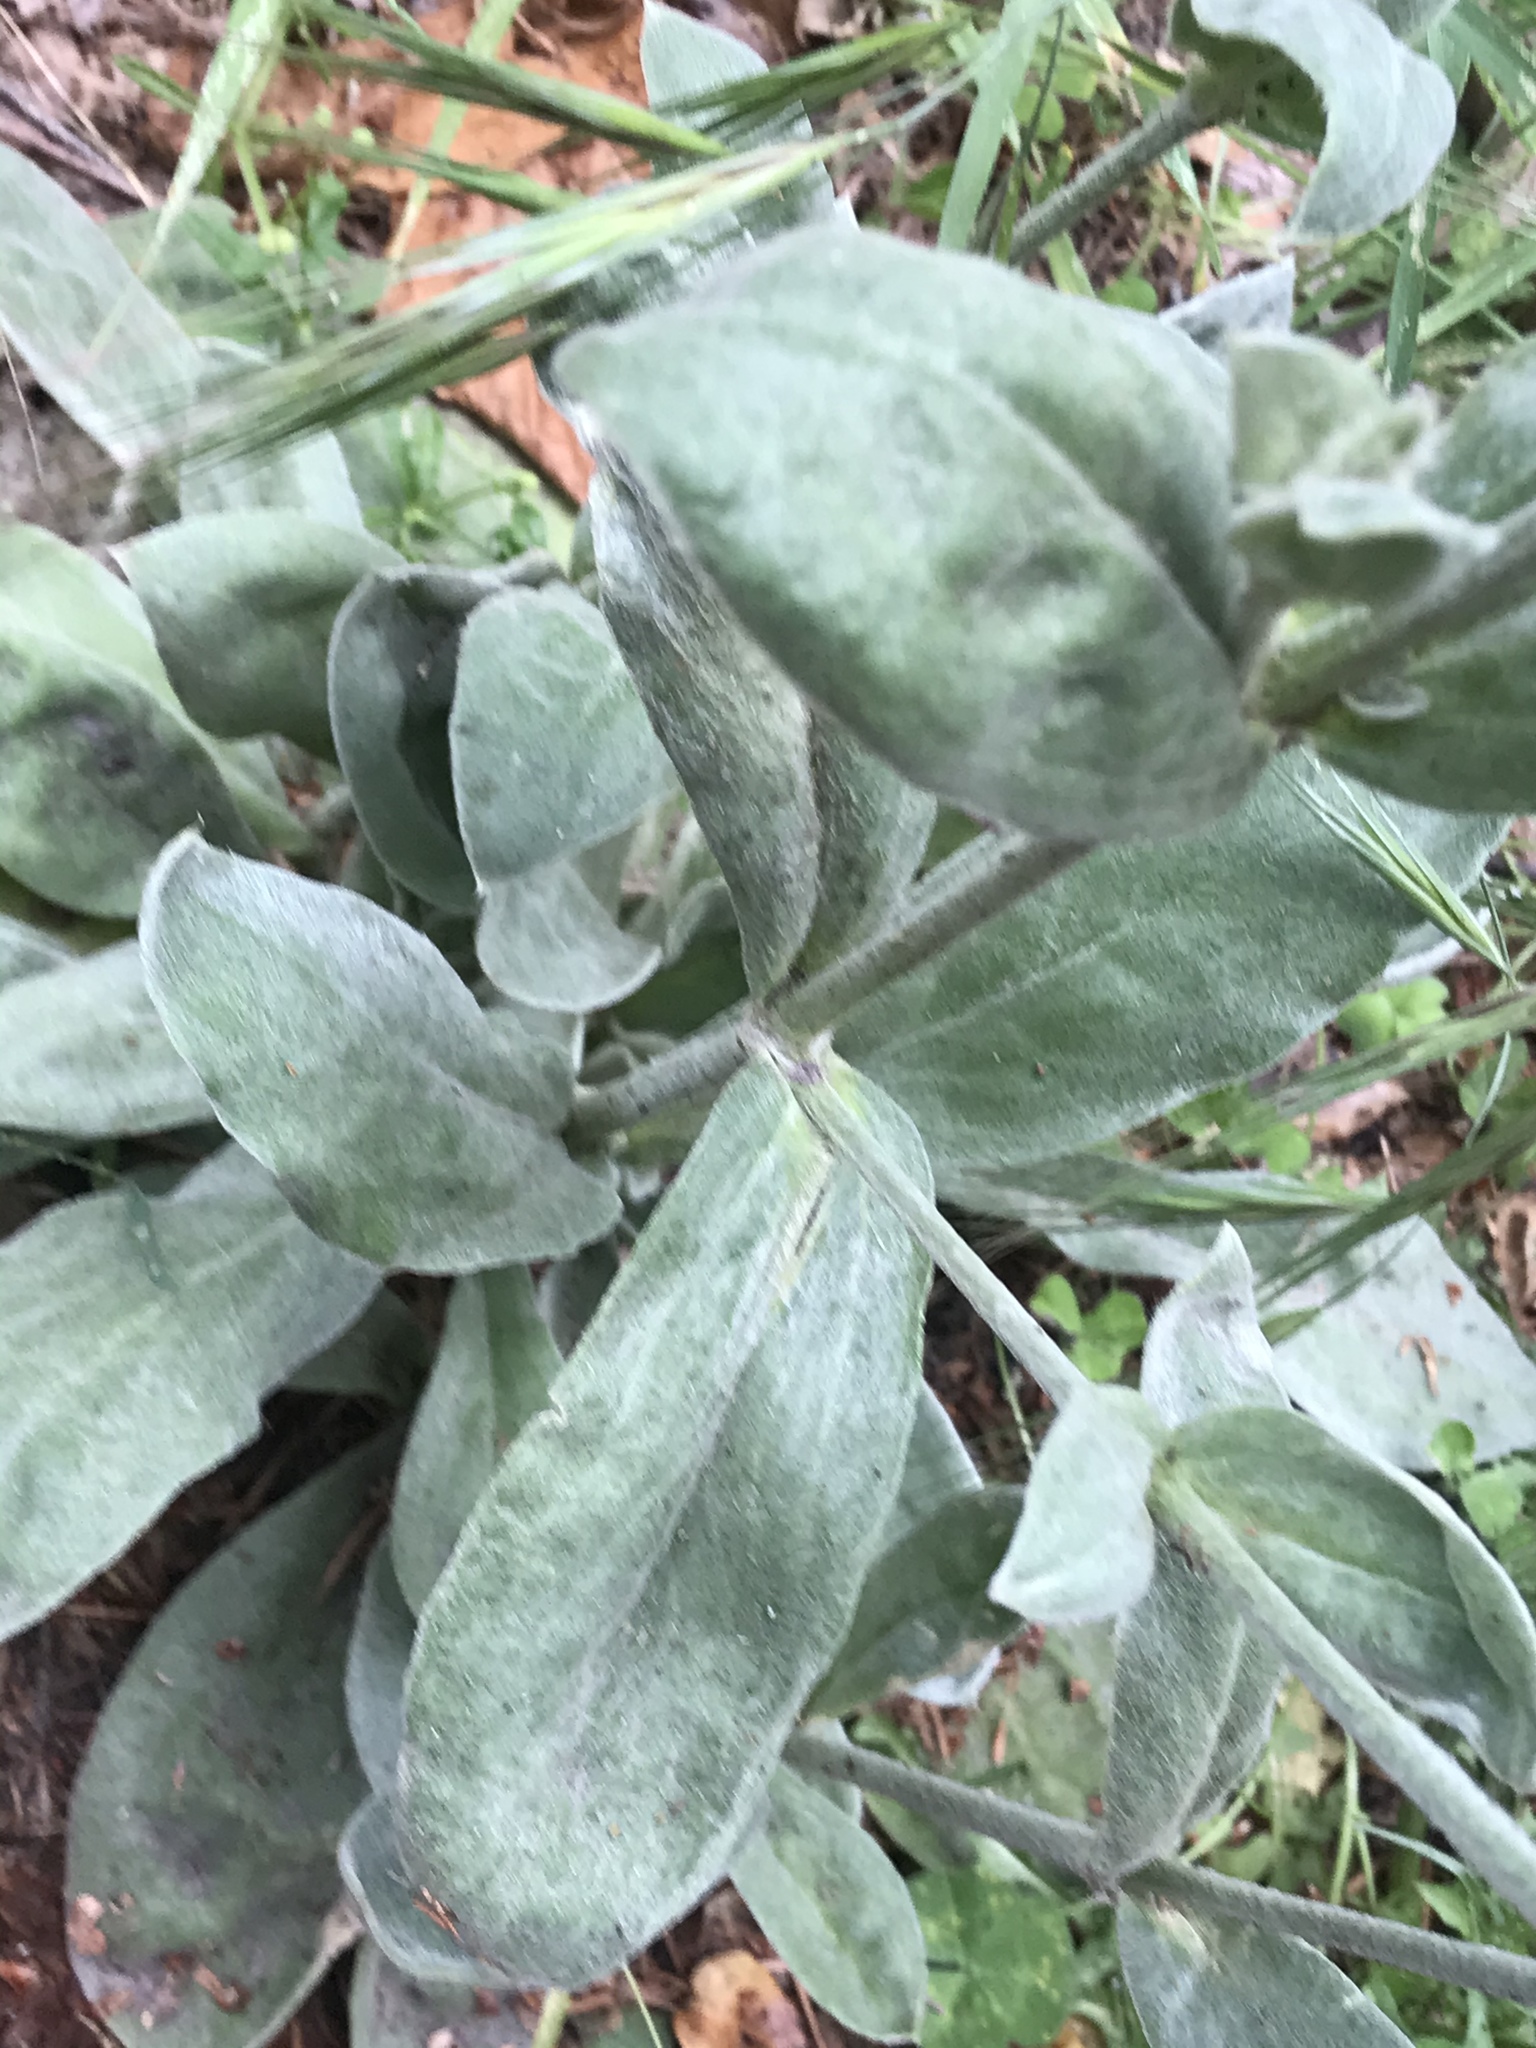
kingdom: Plantae
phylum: Tracheophyta
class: Magnoliopsida
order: Caryophyllales
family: Caryophyllaceae
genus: Silene
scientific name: Silene coronaria
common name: Rose campion
